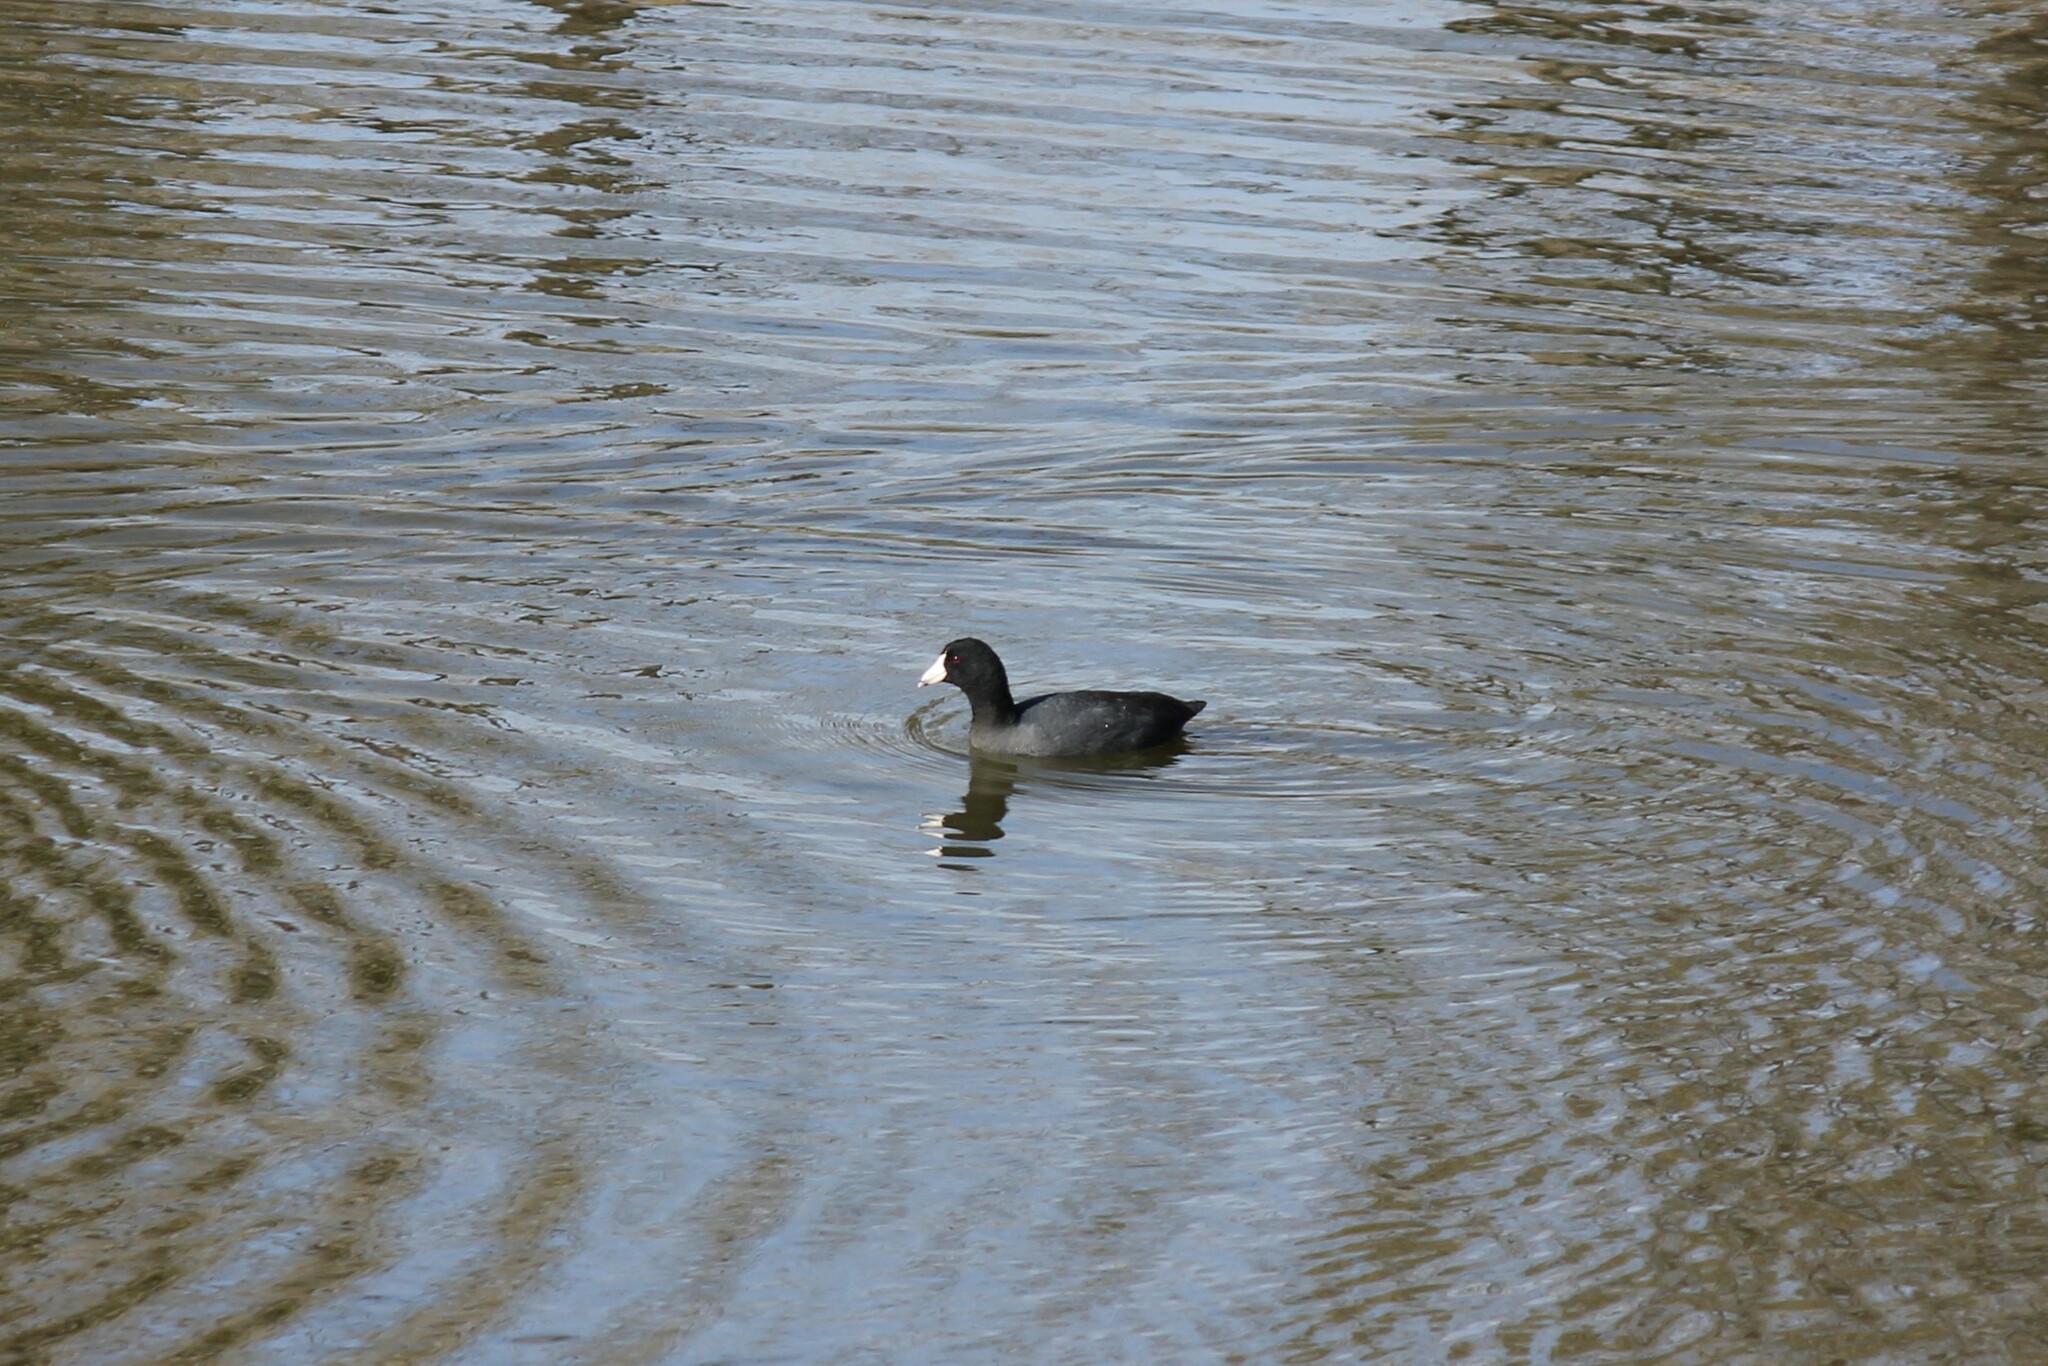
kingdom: Animalia
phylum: Chordata
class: Aves
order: Gruiformes
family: Rallidae
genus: Fulica
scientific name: Fulica americana
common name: American coot
